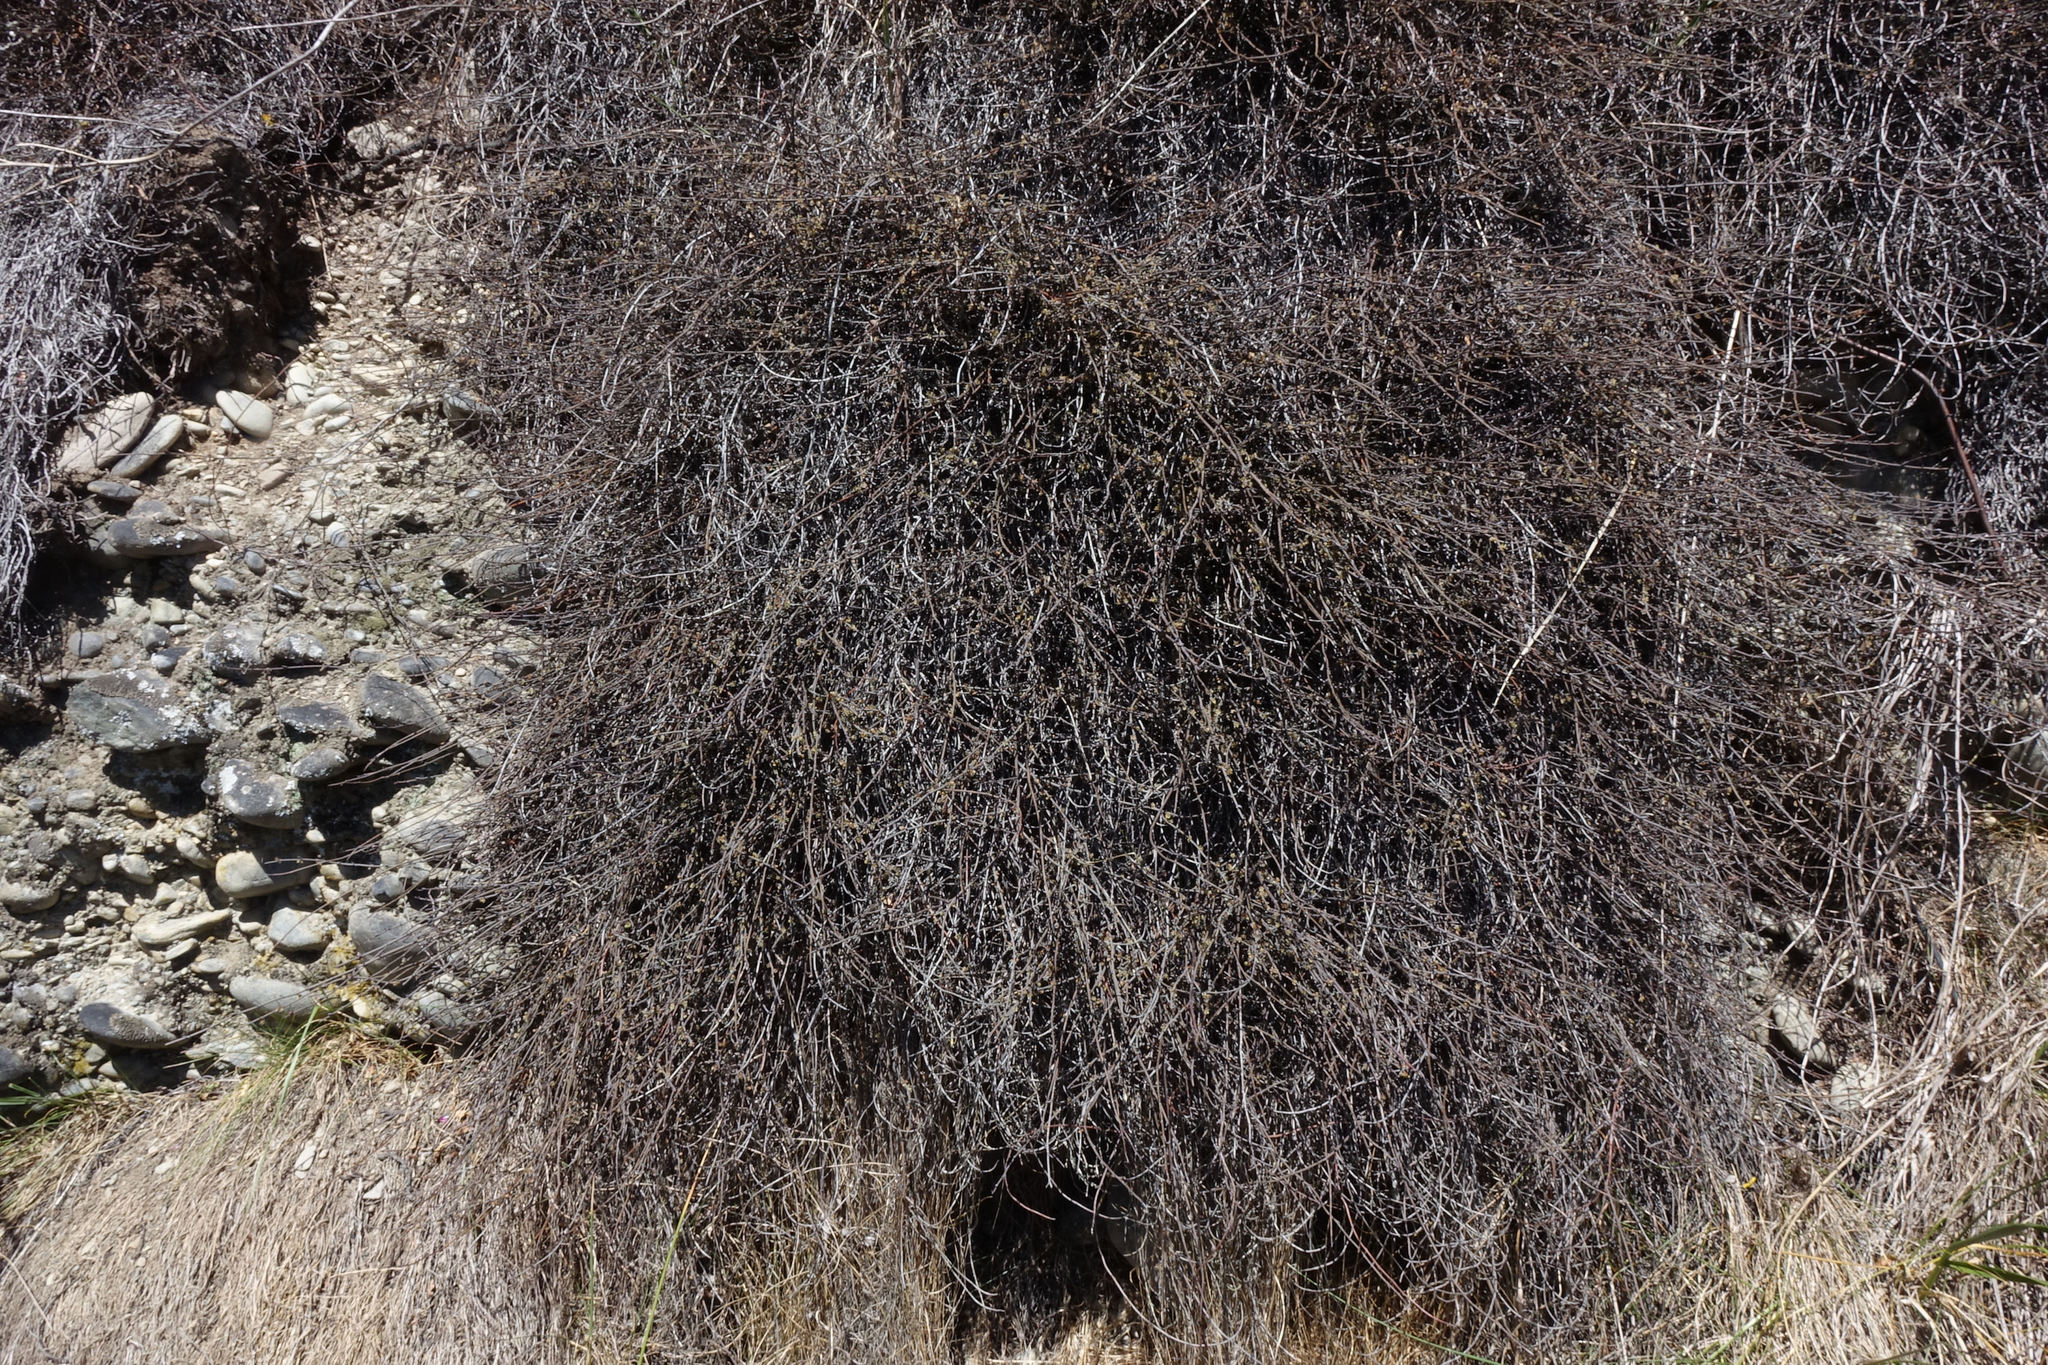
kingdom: Plantae
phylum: Tracheophyta
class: Magnoliopsida
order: Caryophyllales
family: Polygonaceae
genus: Muehlenbeckia
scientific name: Muehlenbeckia ephedroides
